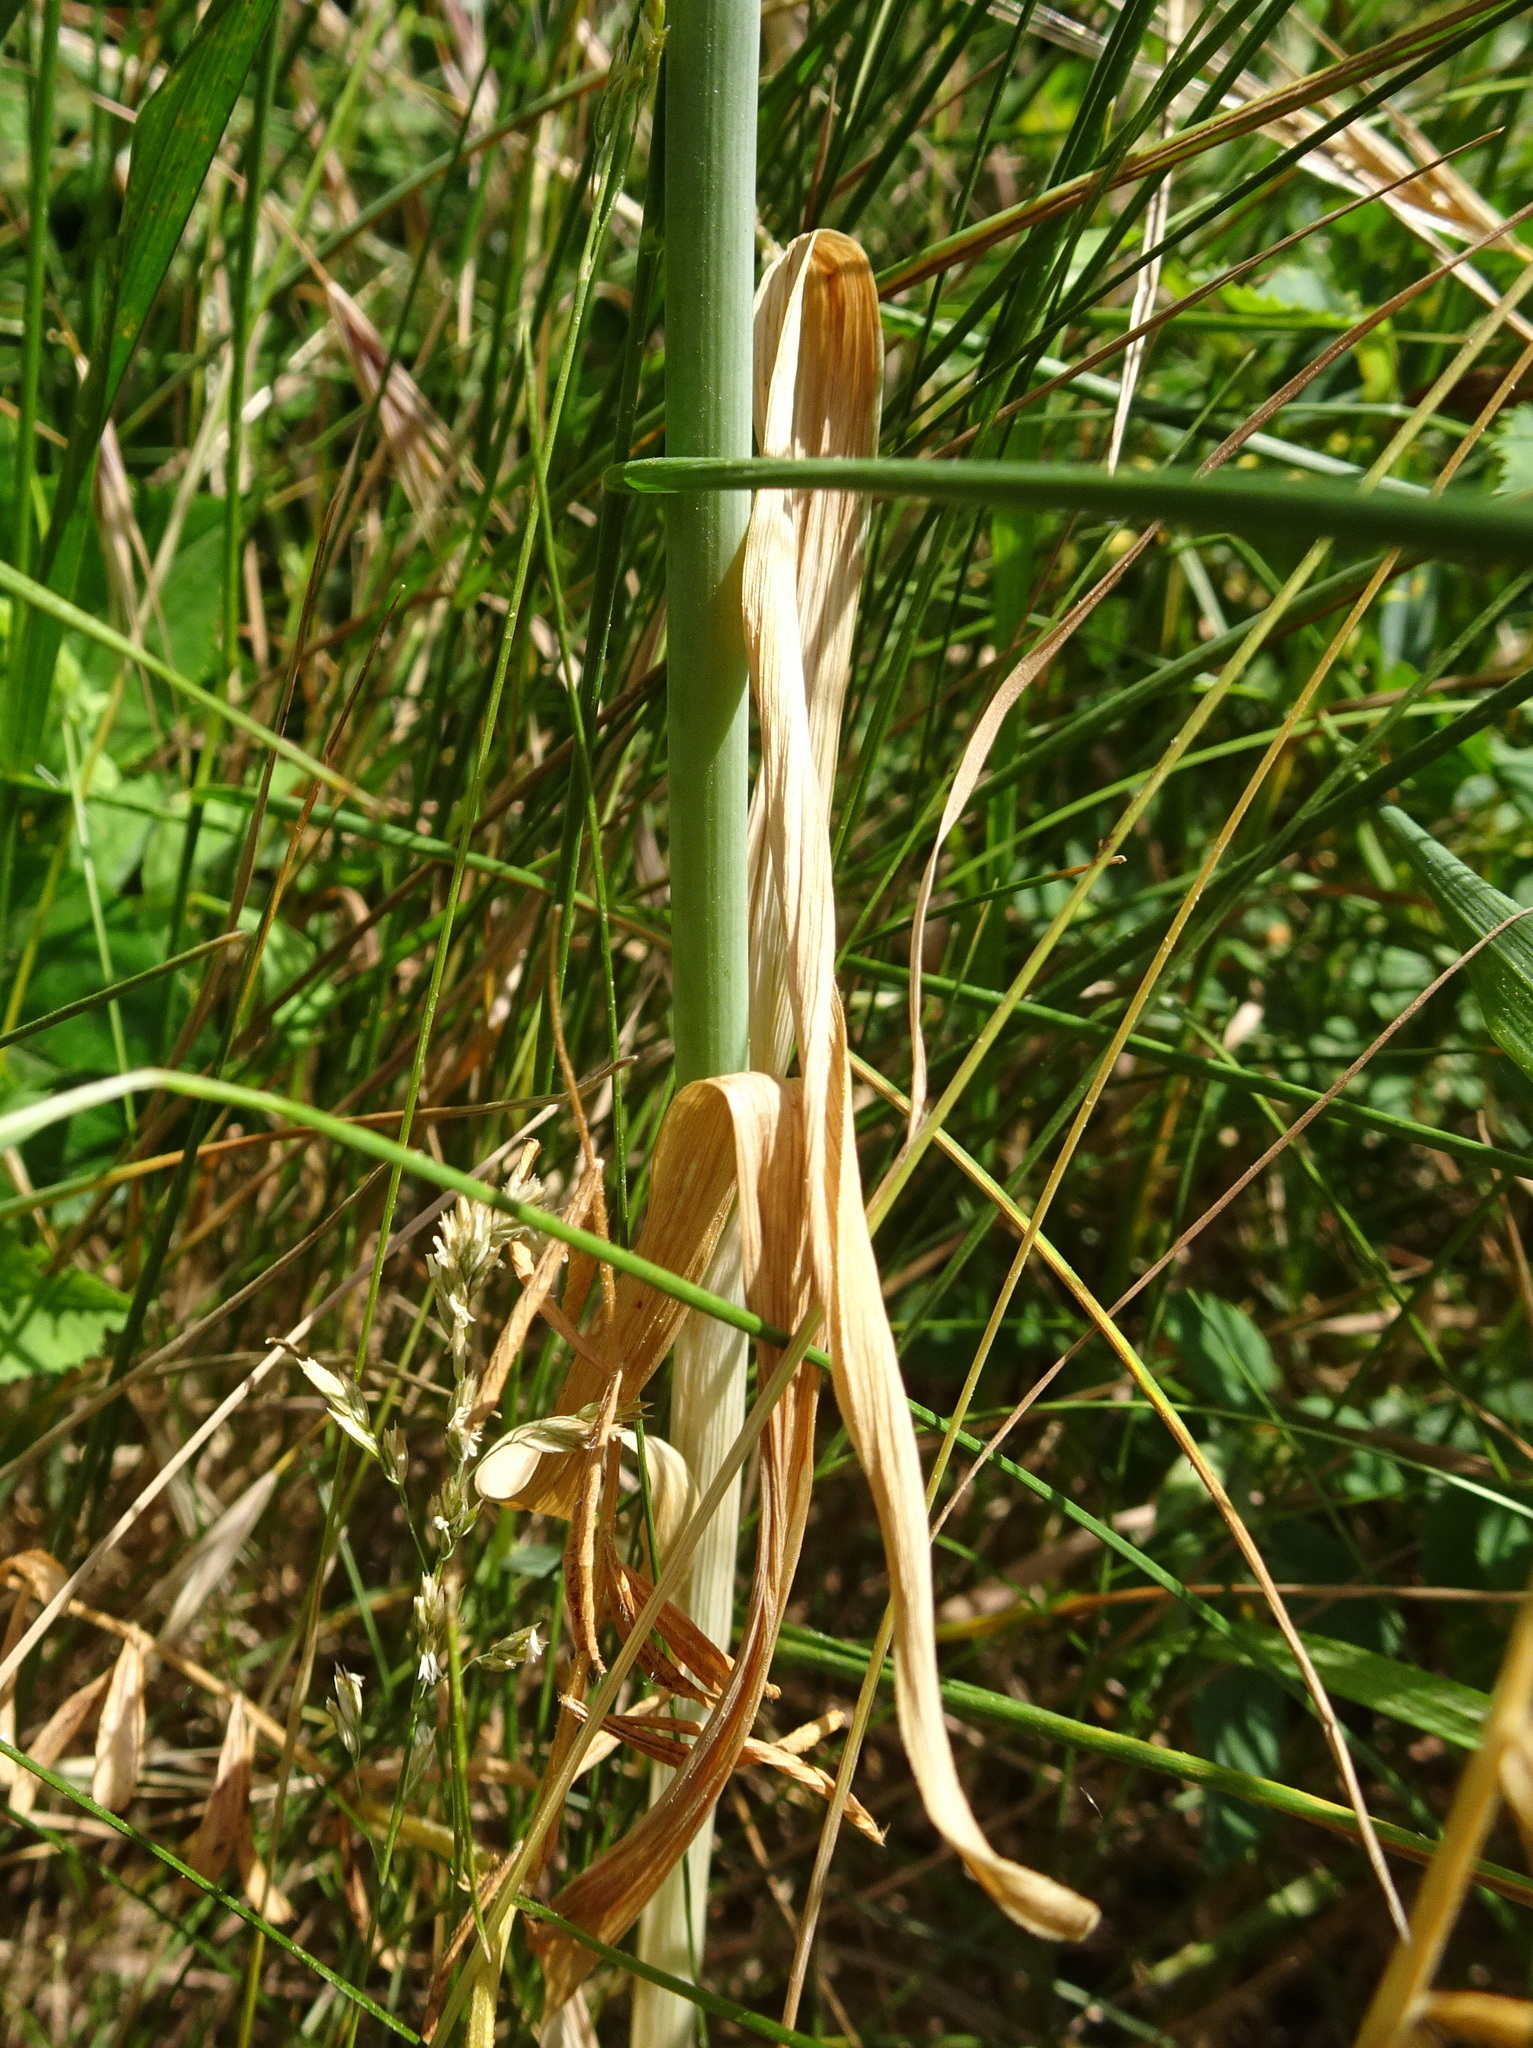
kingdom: Plantae
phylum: Tracheophyta
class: Liliopsida
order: Asparagales
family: Amaryllidaceae
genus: Allium
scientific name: Allium scorodoprasum
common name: Sand leek
